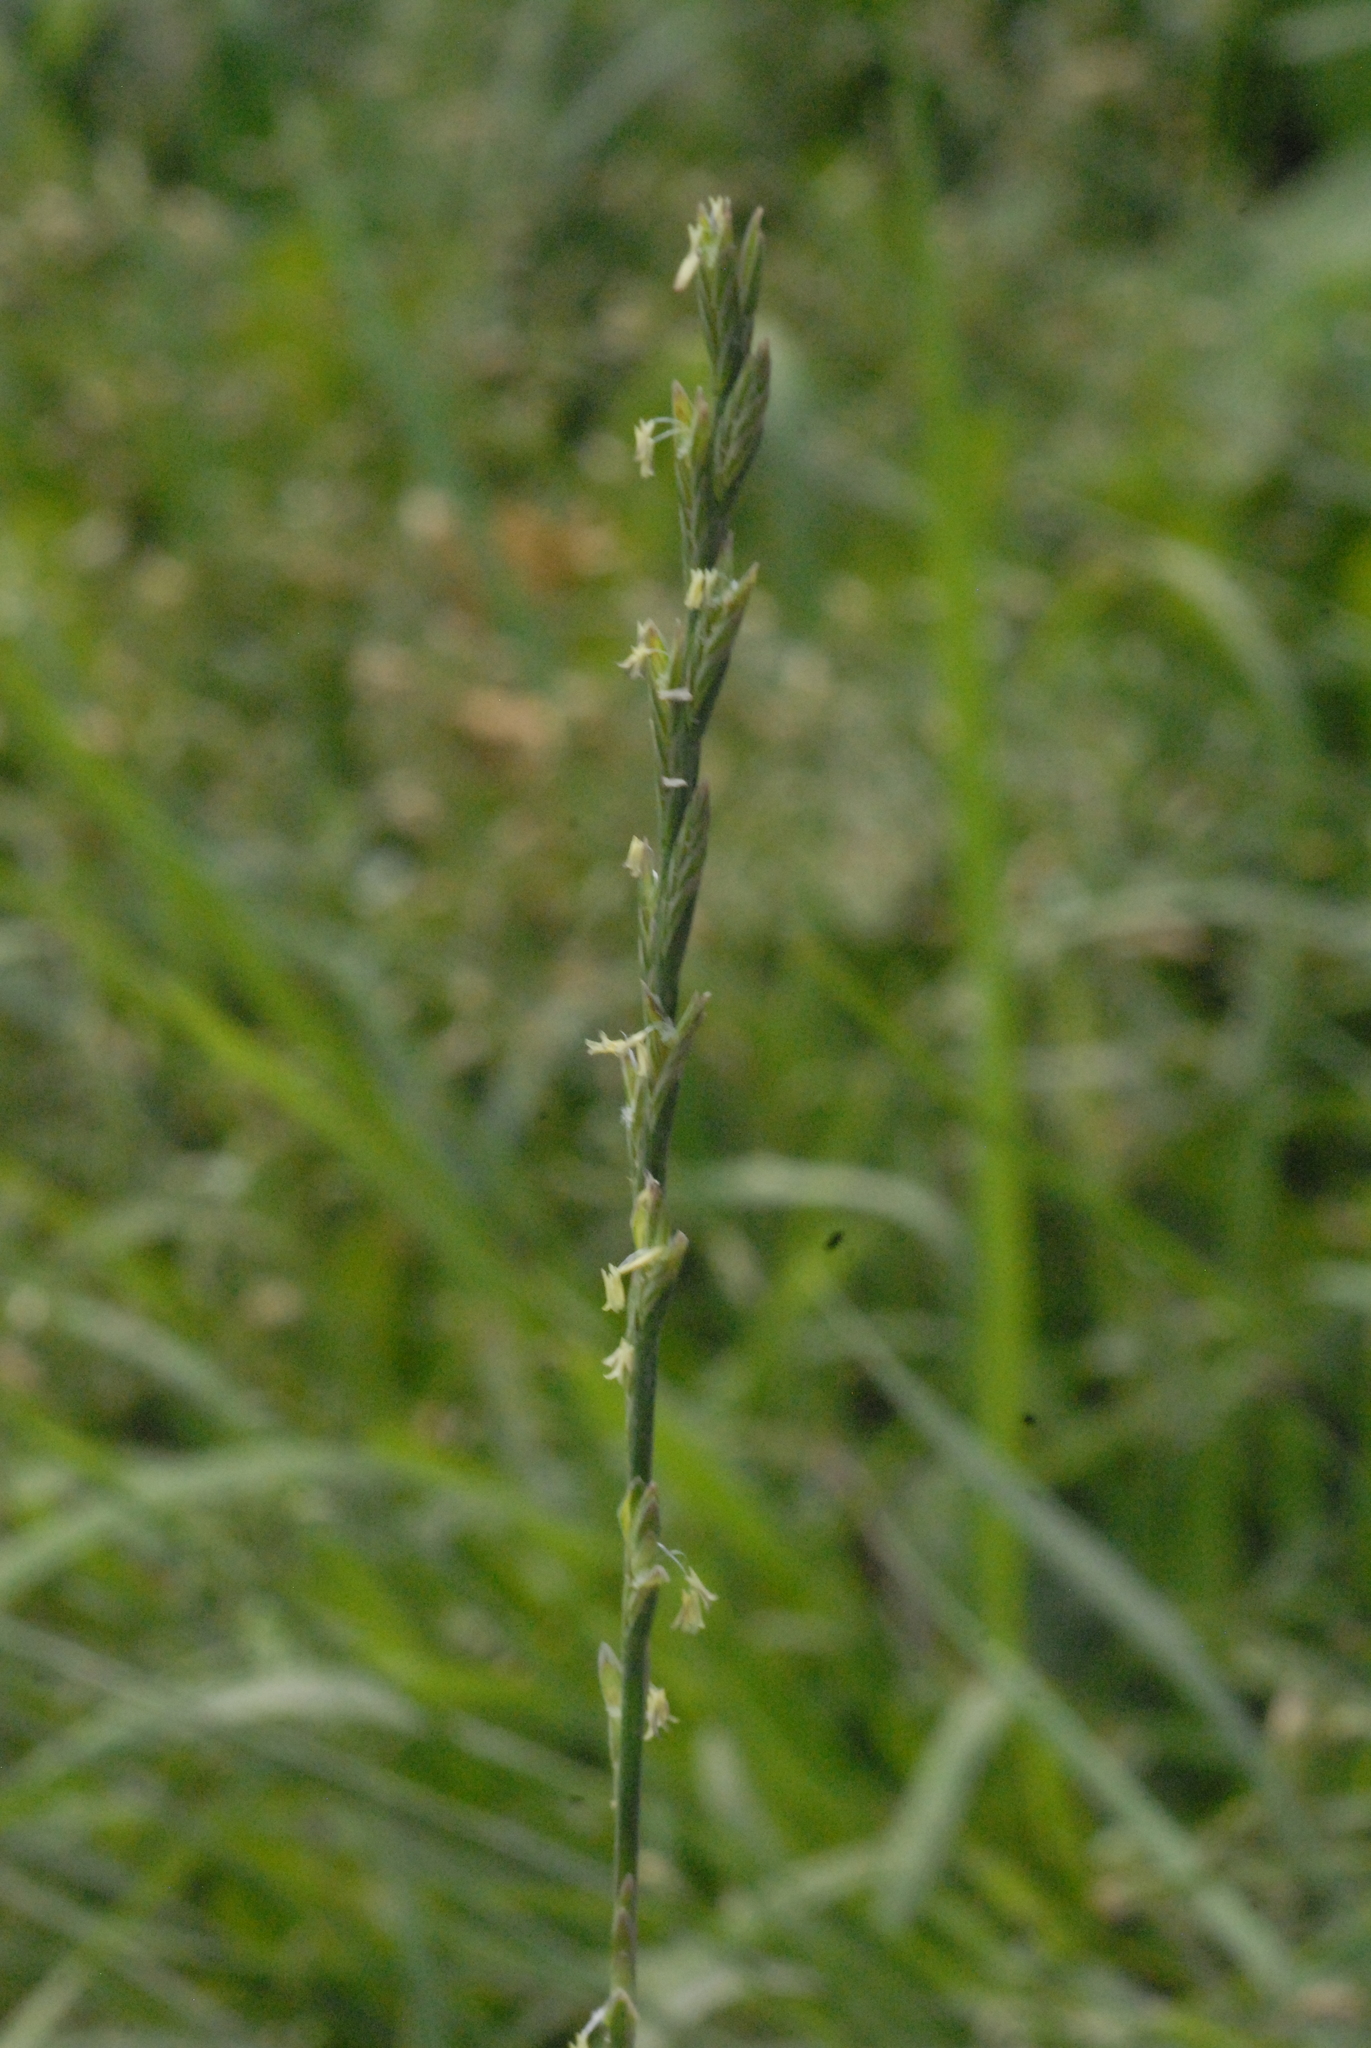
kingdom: Plantae
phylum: Tracheophyta
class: Liliopsida
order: Poales
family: Poaceae
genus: Lolium
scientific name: Lolium perenne
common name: Perennial ryegrass
